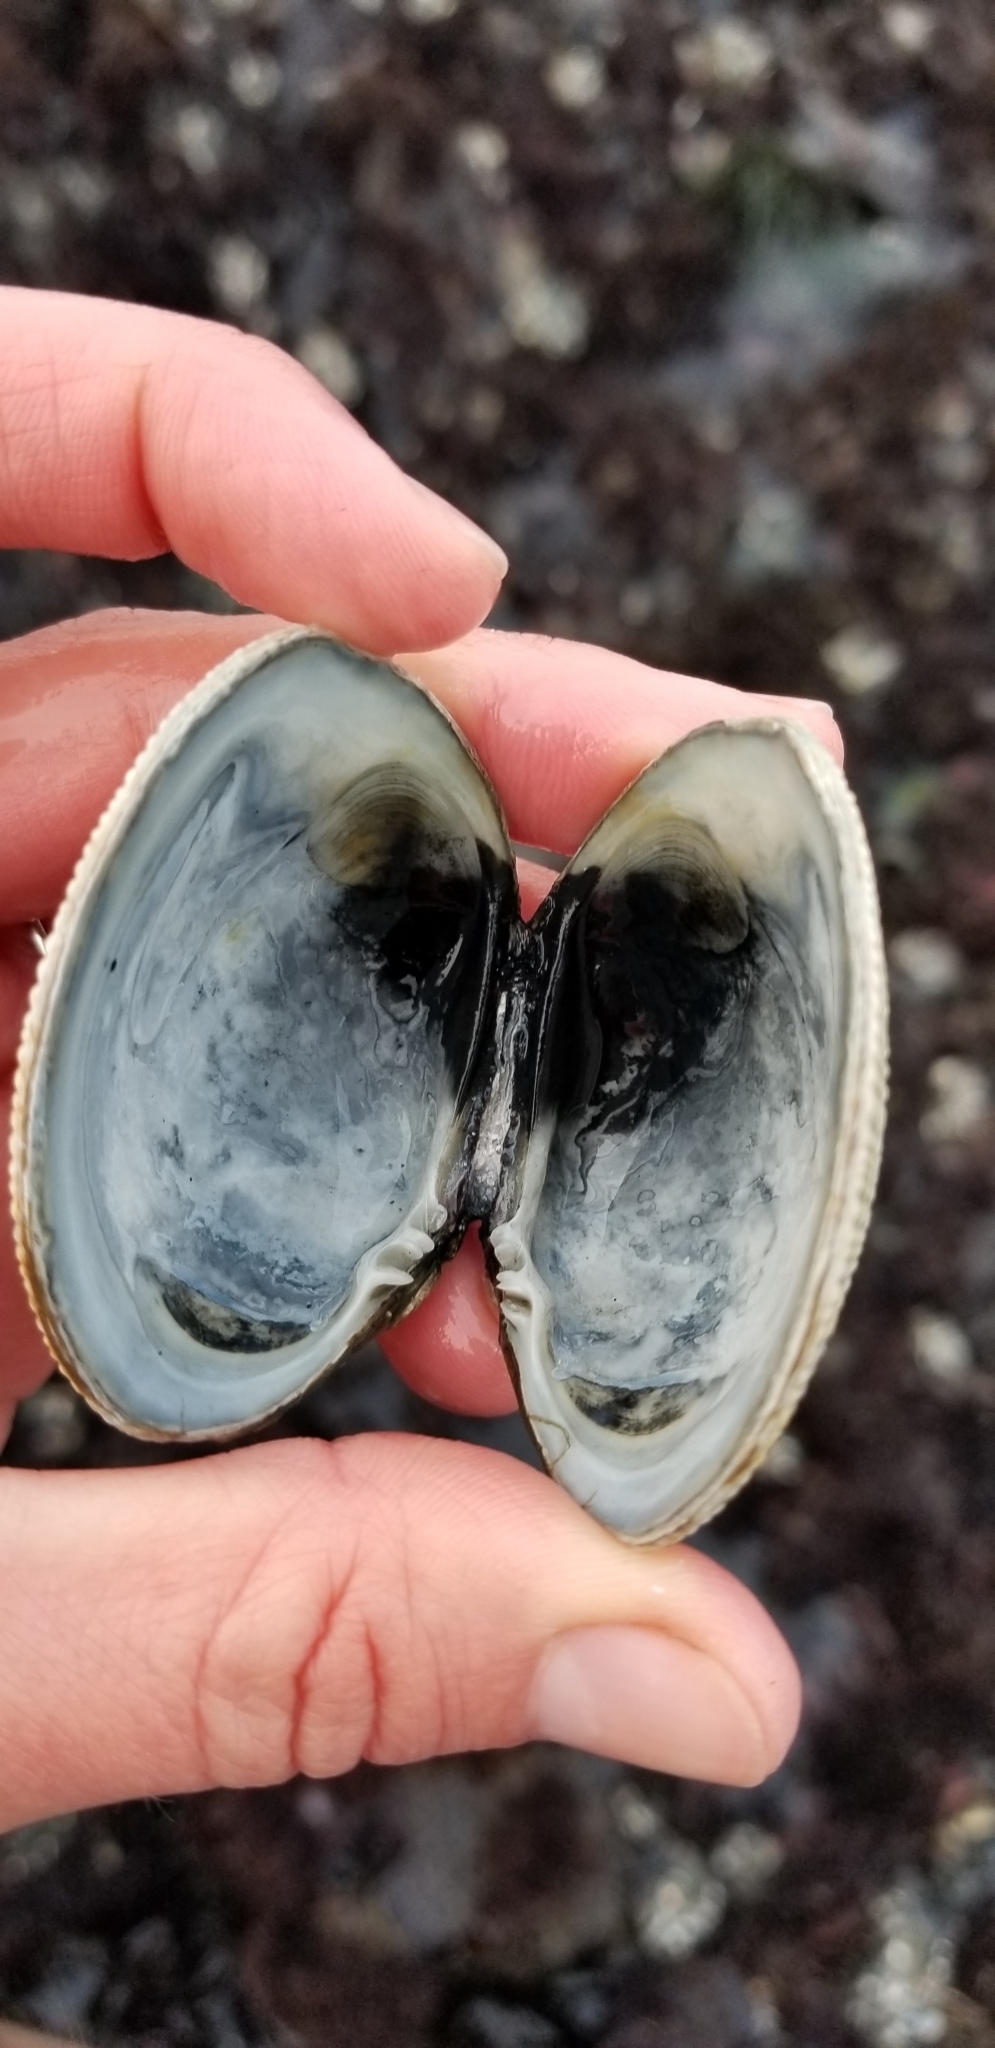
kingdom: Animalia
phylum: Mollusca
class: Bivalvia
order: Venerida
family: Veneridae
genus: Leukoma
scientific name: Leukoma staminea
